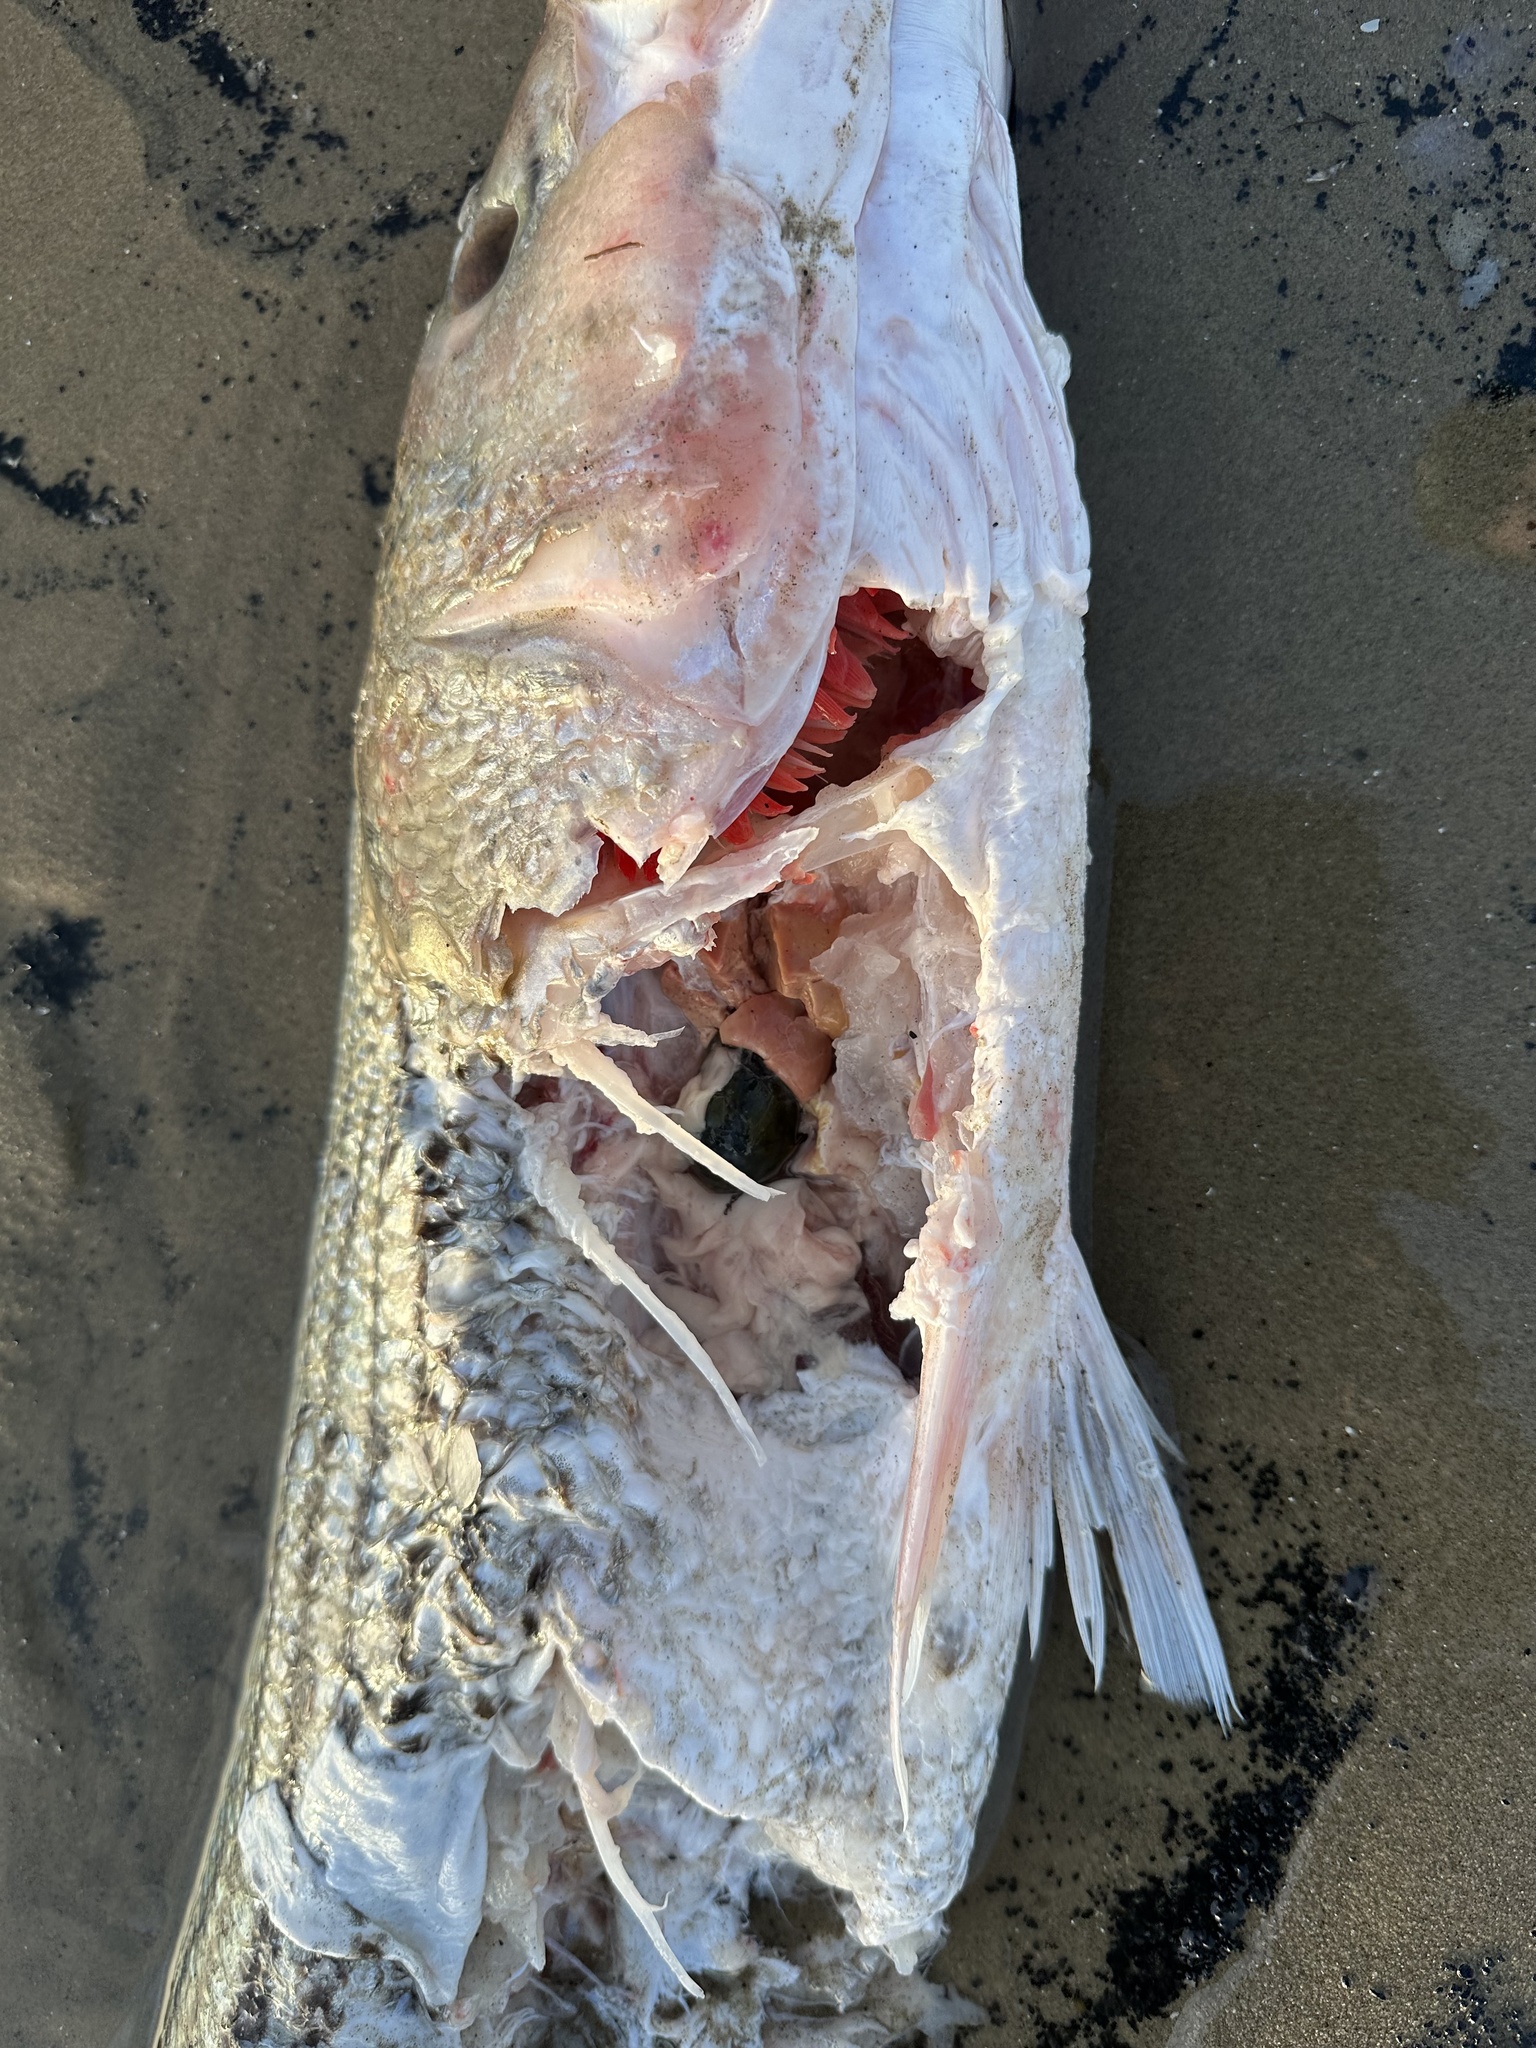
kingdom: Animalia
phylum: Chordata
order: Perciformes
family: Moronidae
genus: Morone
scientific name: Morone saxatilis
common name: Striped bass
